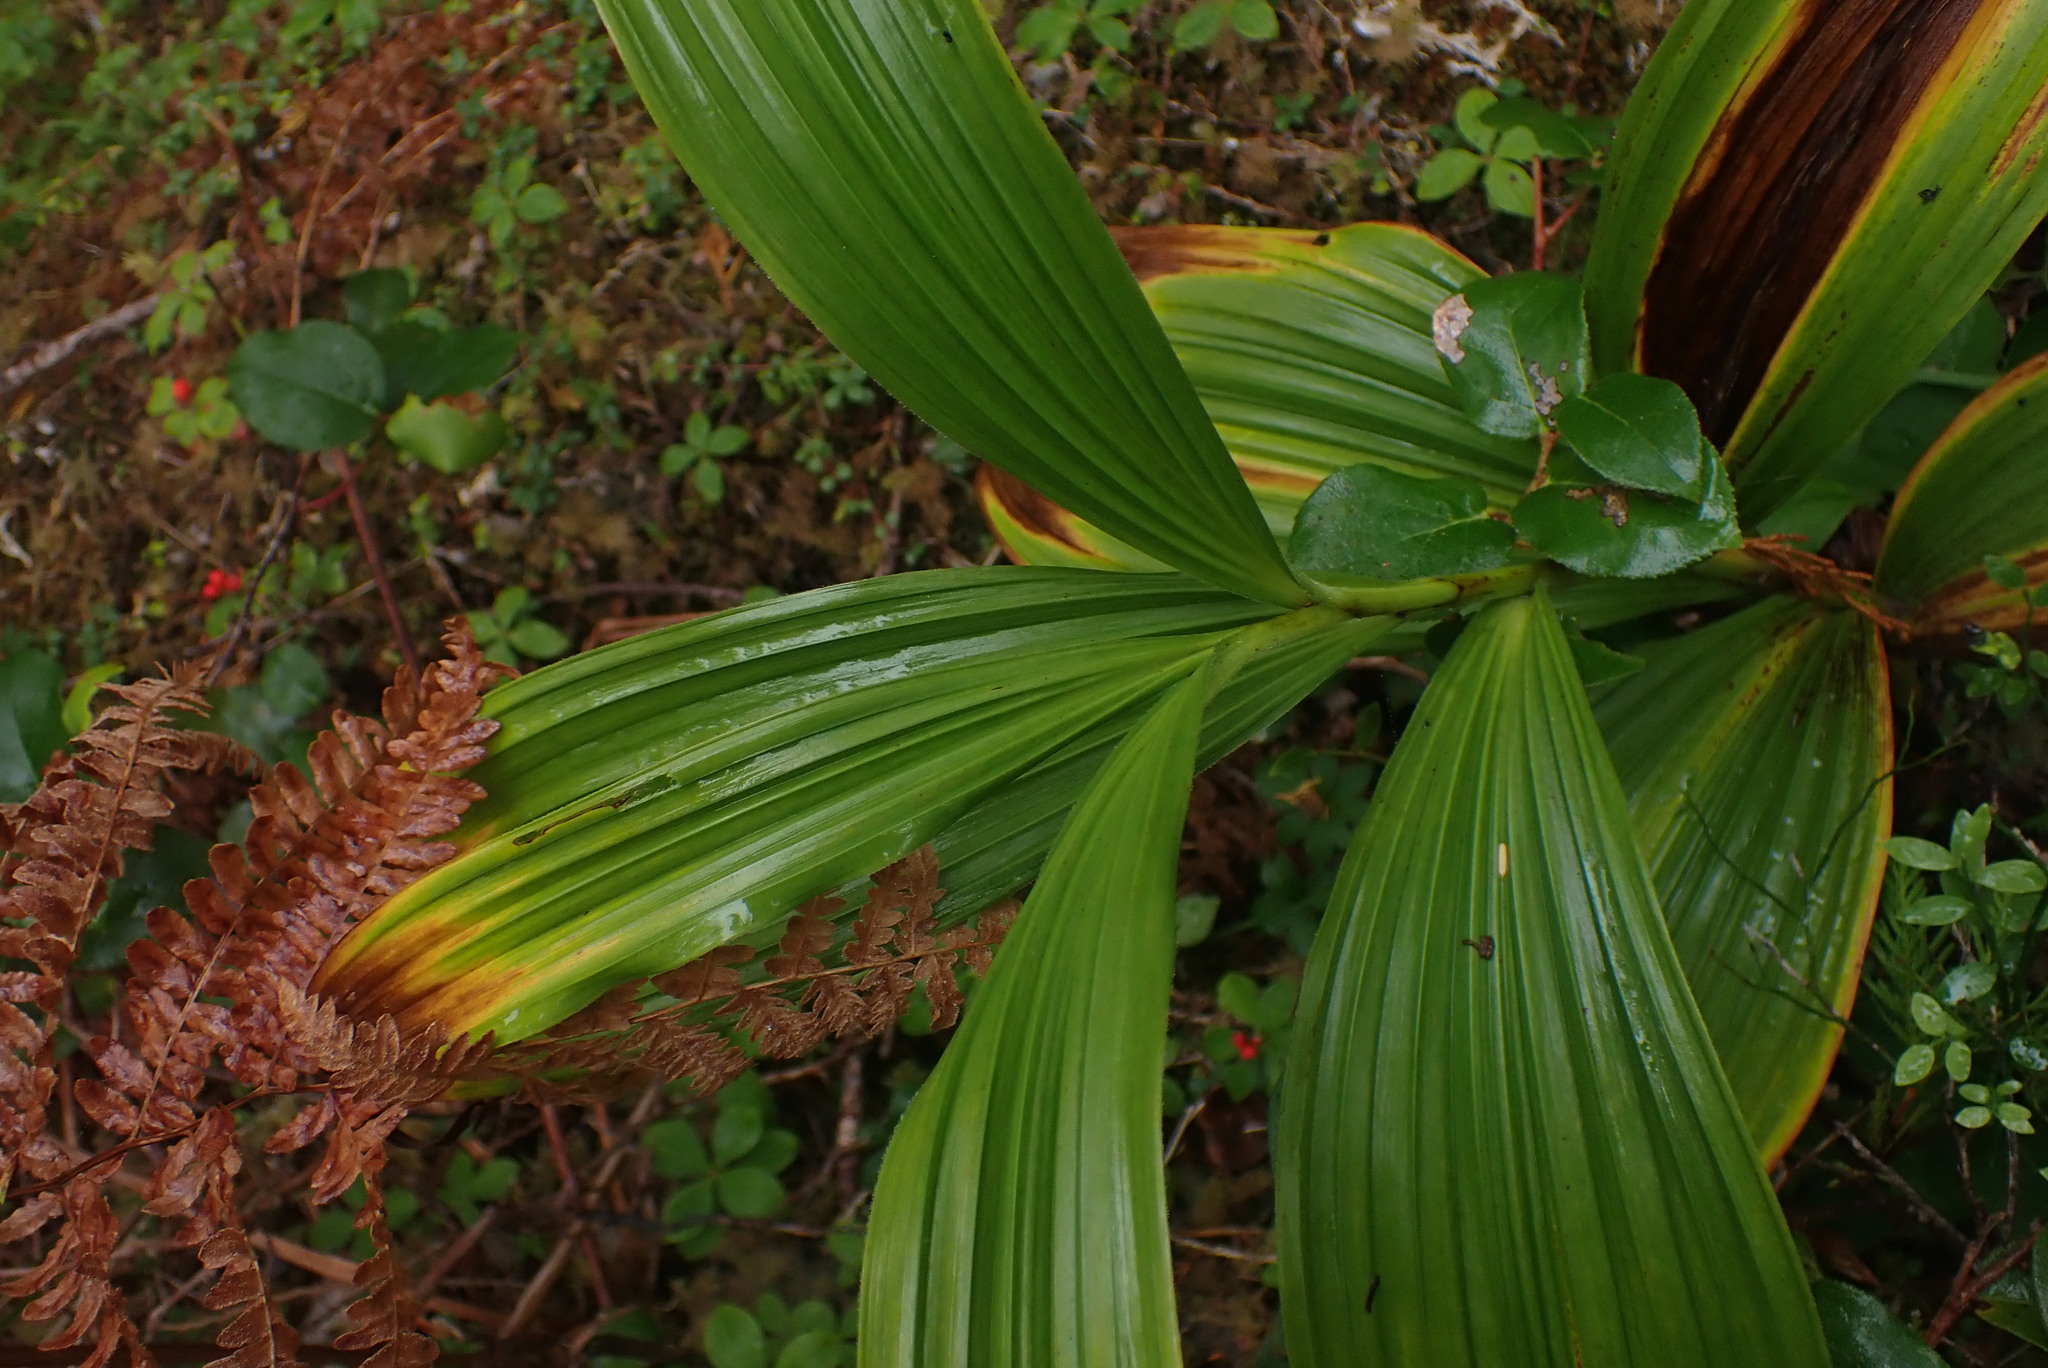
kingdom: Plantae
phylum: Tracheophyta
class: Liliopsida
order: Liliales
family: Melanthiaceae
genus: Veratrum
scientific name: Veratrum viride
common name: American false hellebore
